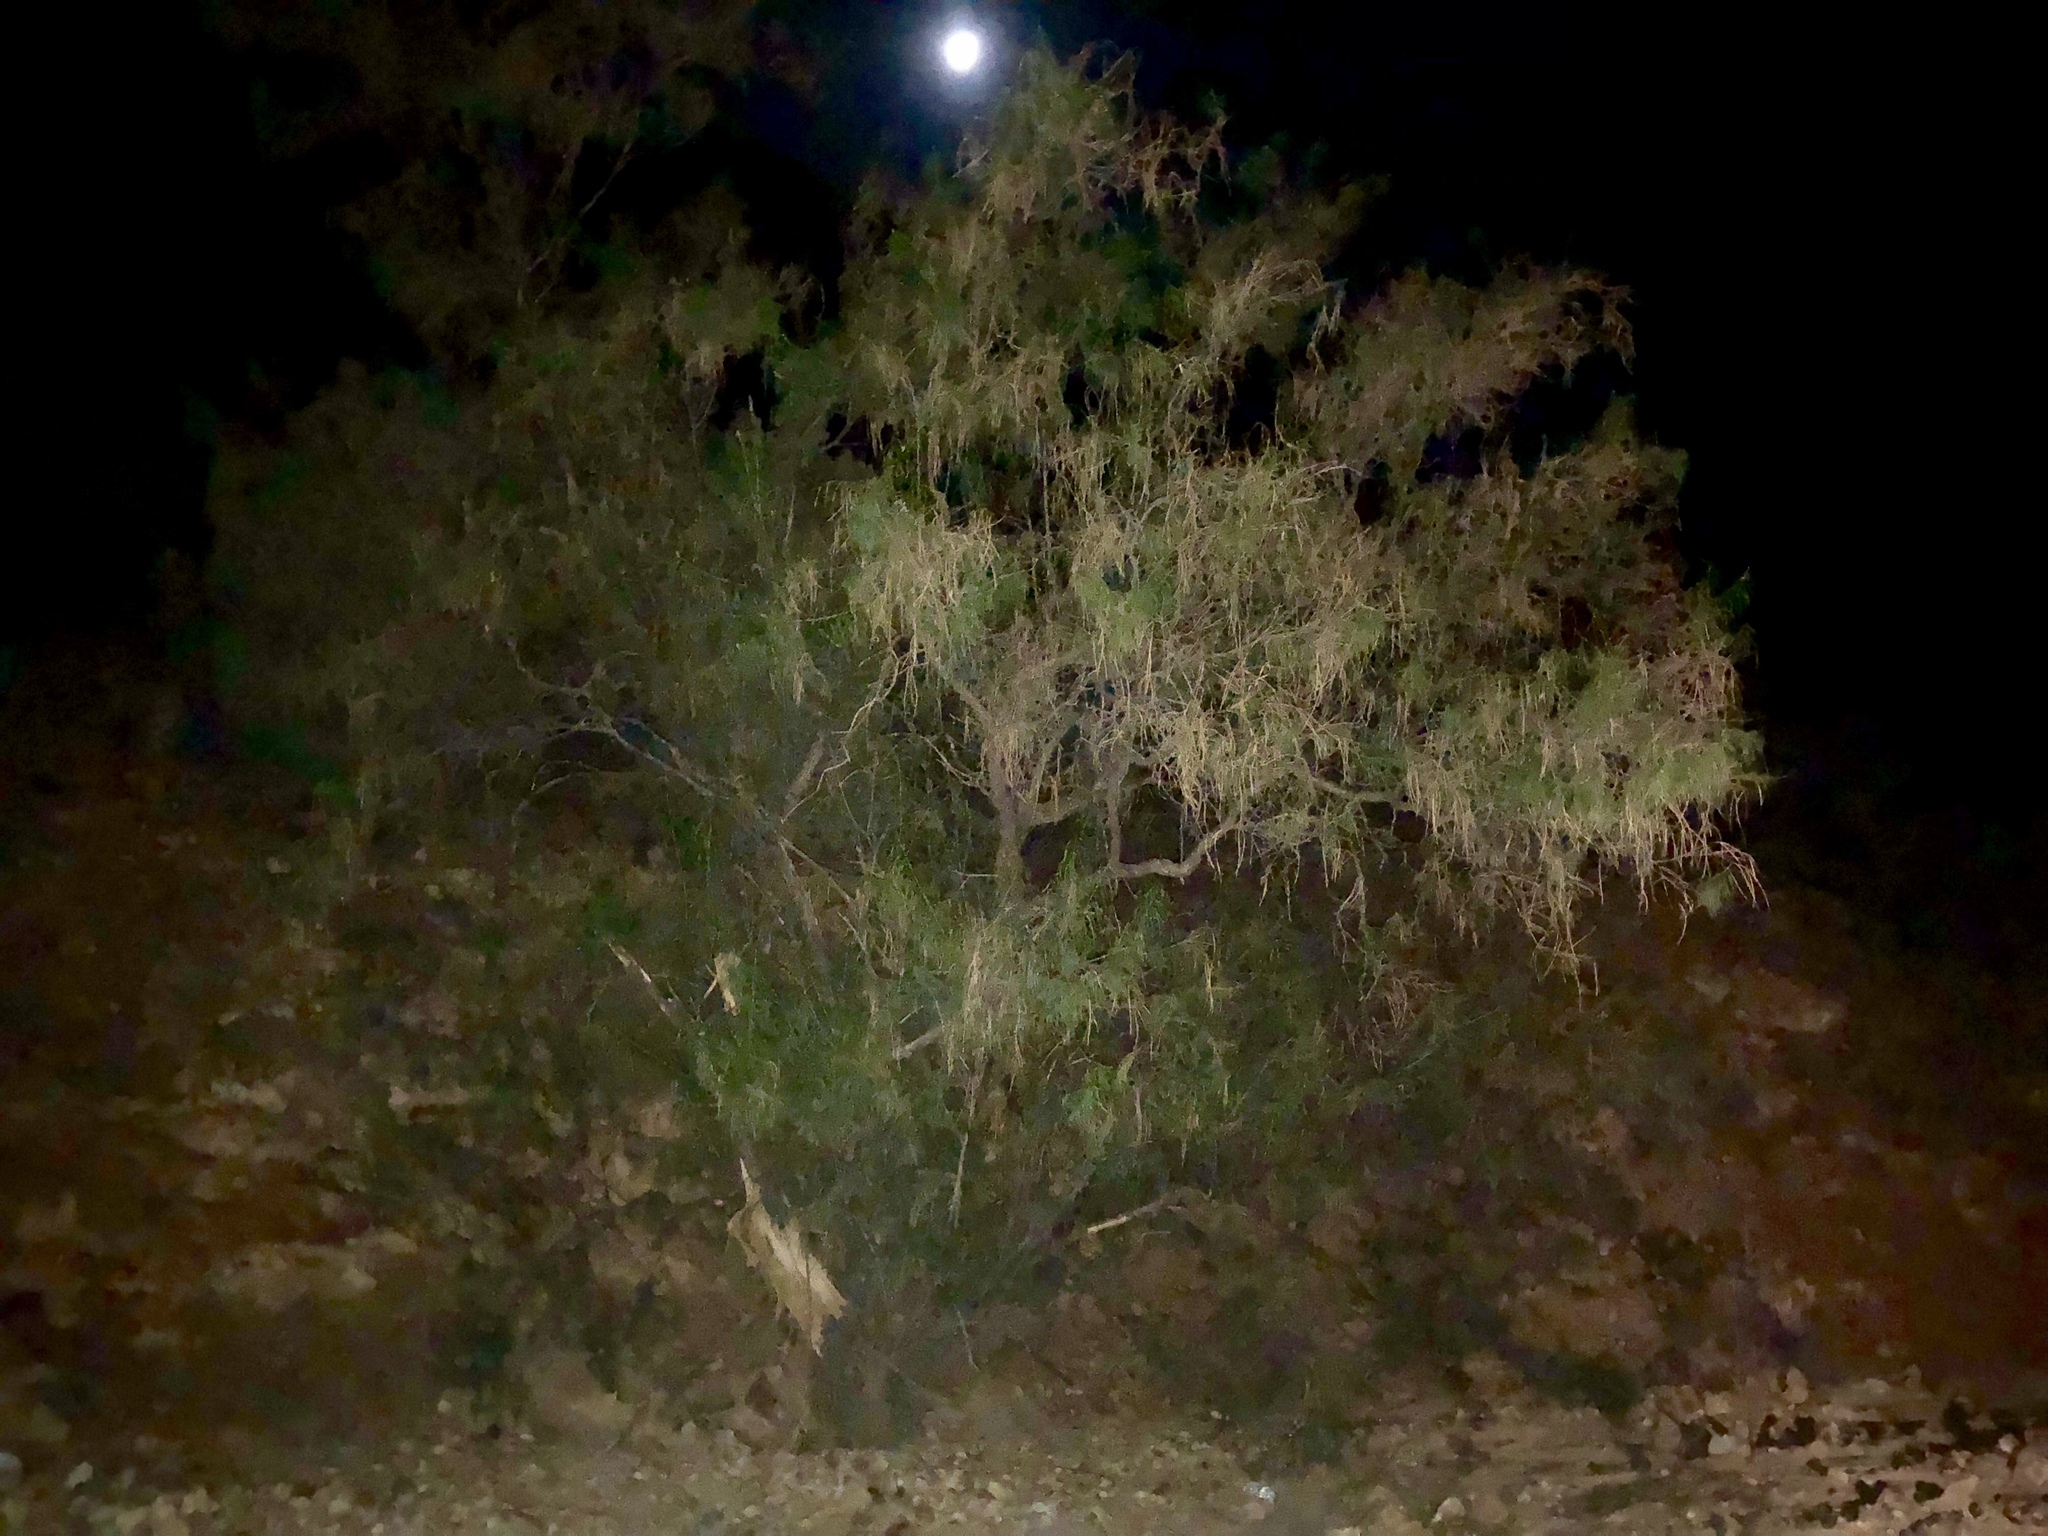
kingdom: Plantae
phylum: Tracheophyta
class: Magnoliopsida
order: Lamiales
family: Bignoniaceae
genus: Chilopsis
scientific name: Chilopsis linearis
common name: Desert-willow
